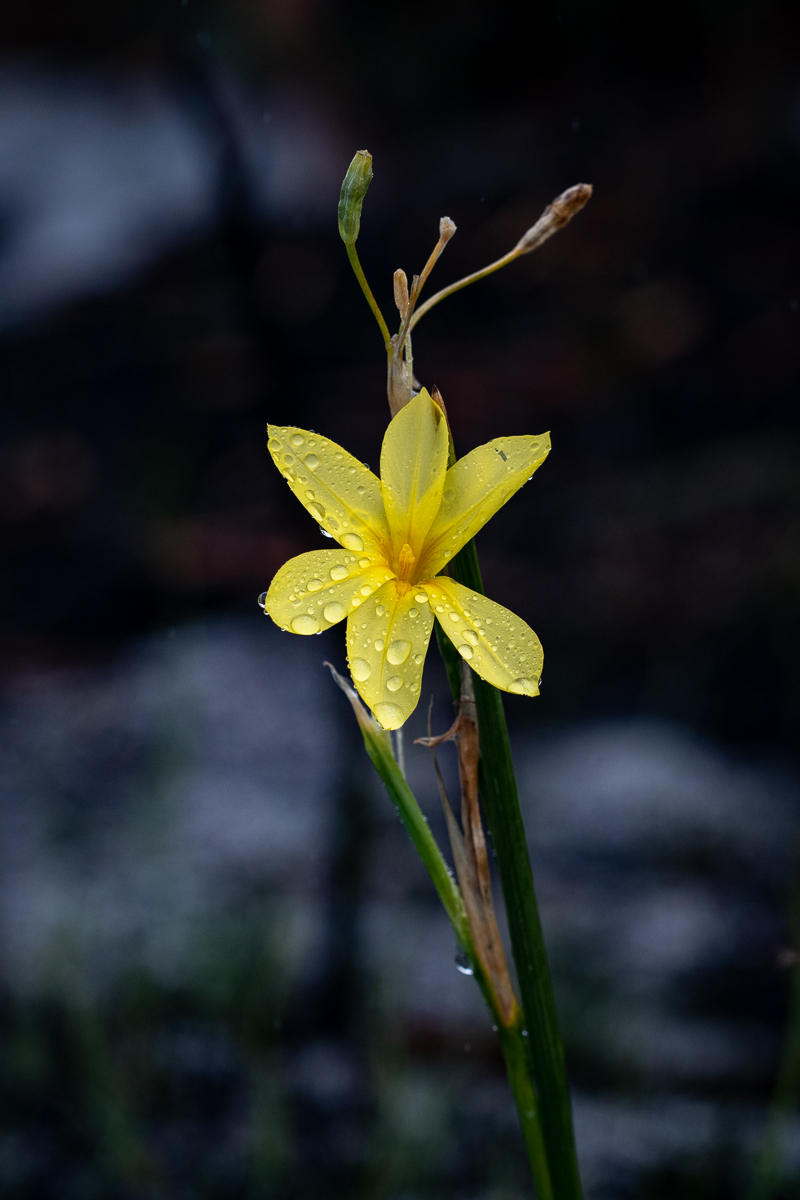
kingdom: Plantae
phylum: Tracheophyta
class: Liliopsida
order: Asparagales
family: Iridaceae
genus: Moraea
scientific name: Moraea pyrophila
